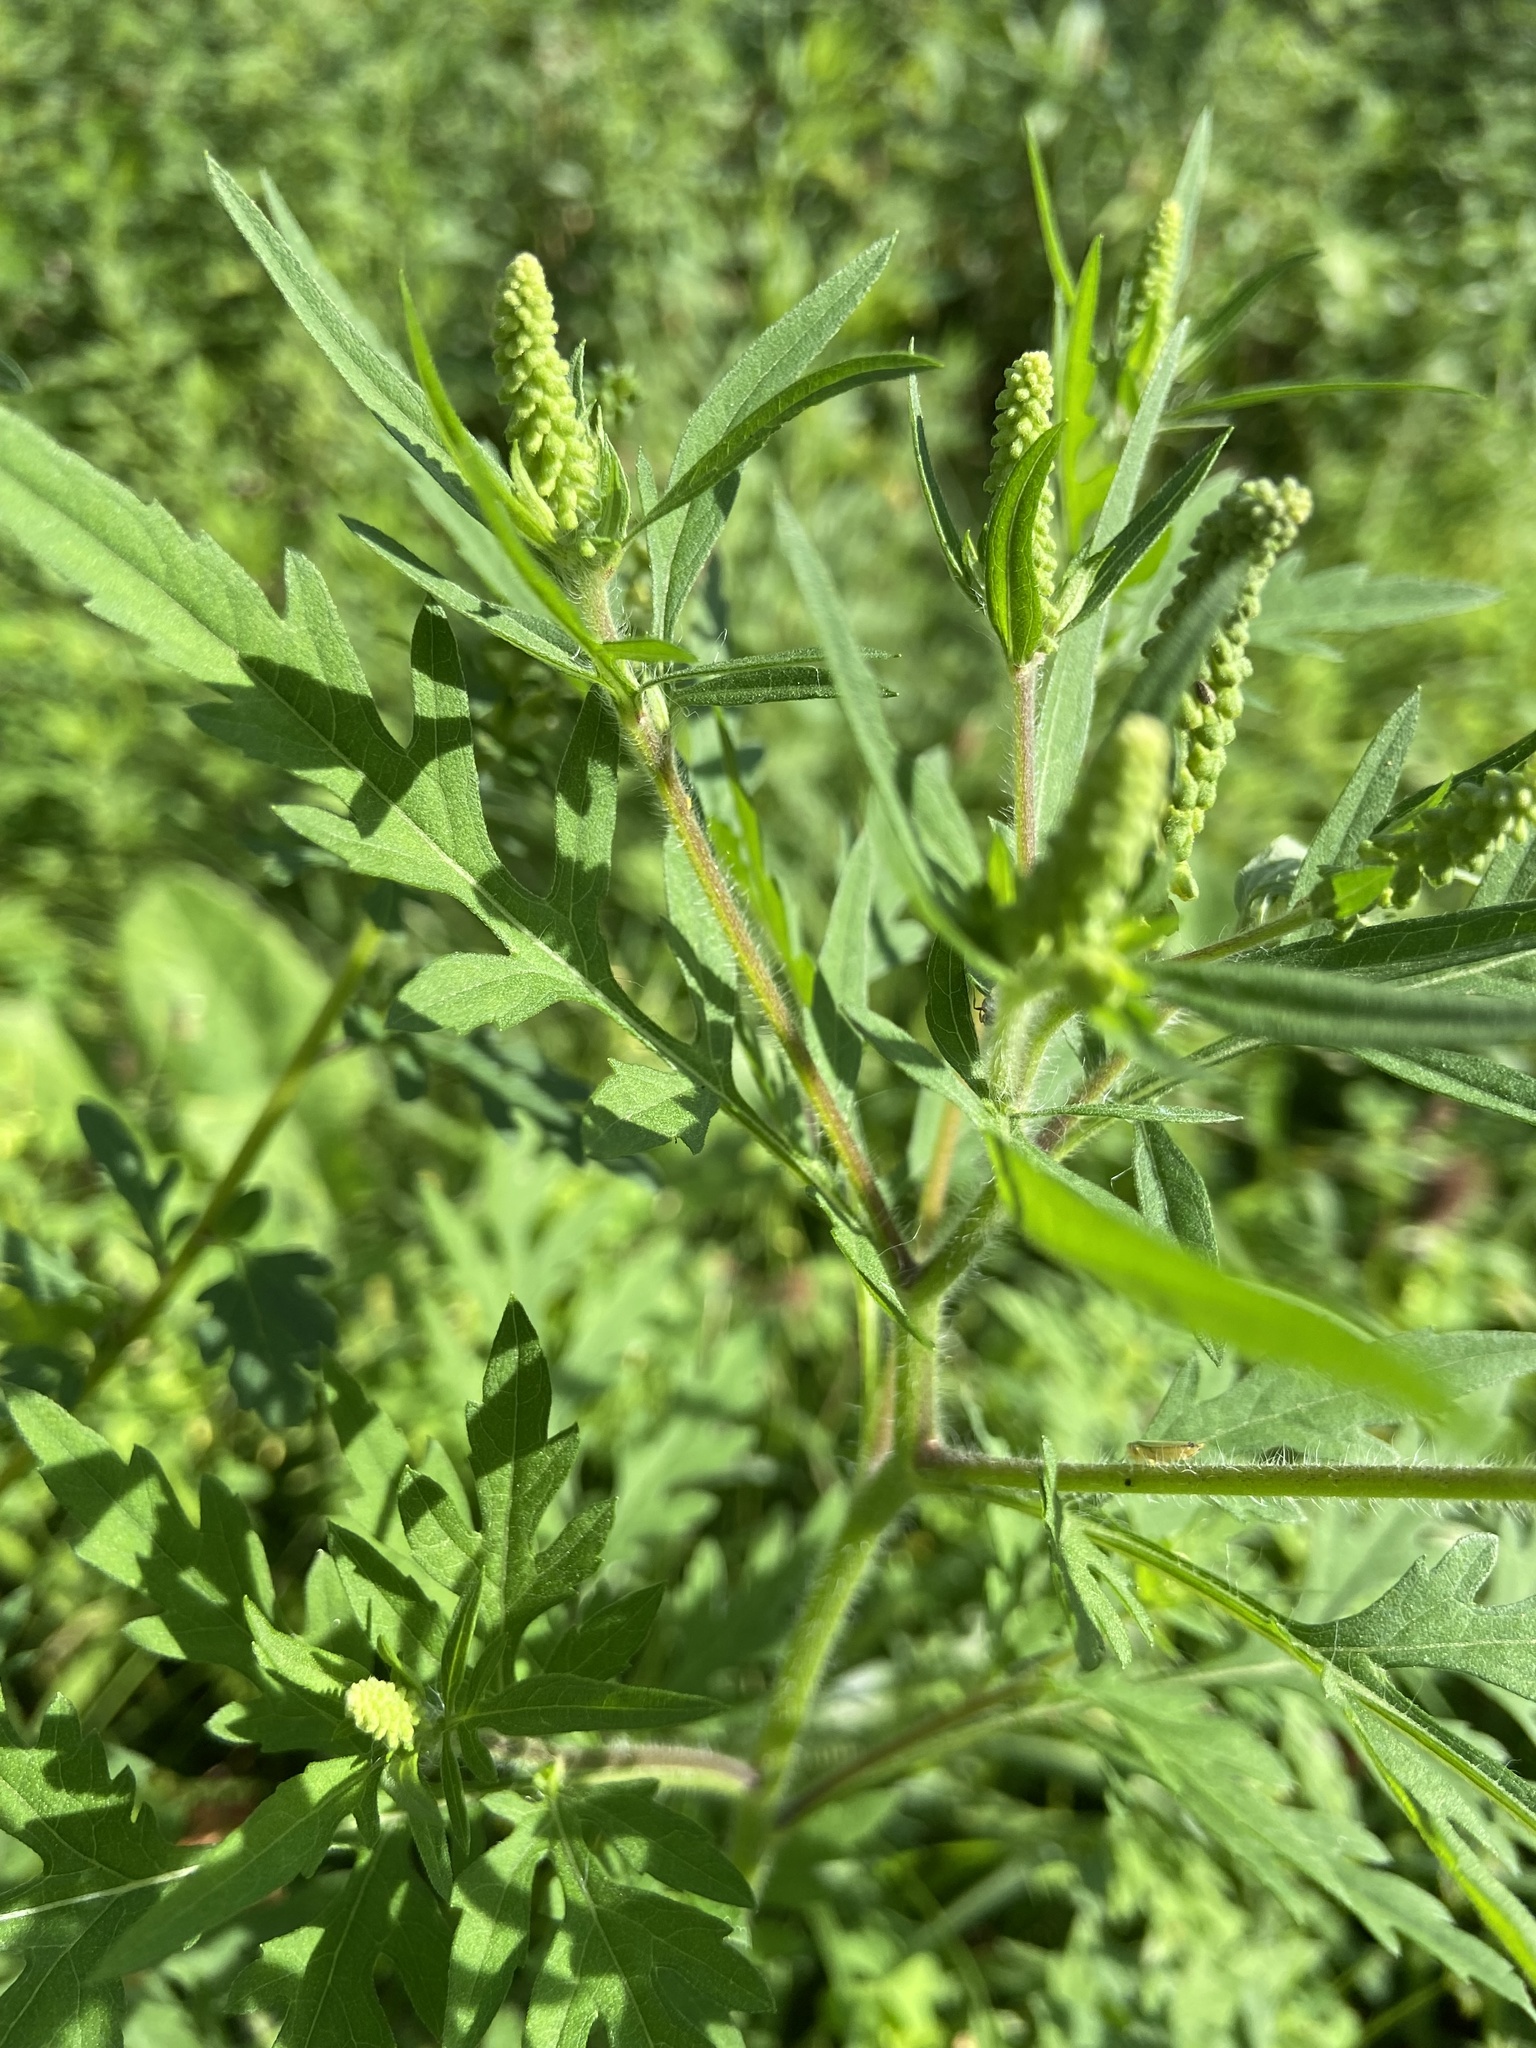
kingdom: Plantae
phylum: Tracheophyta
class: Magnoliopsida
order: Asterales
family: Asteraceae
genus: Ambrosia
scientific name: Ambrosia artemisiifolia
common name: Annual ragweed
